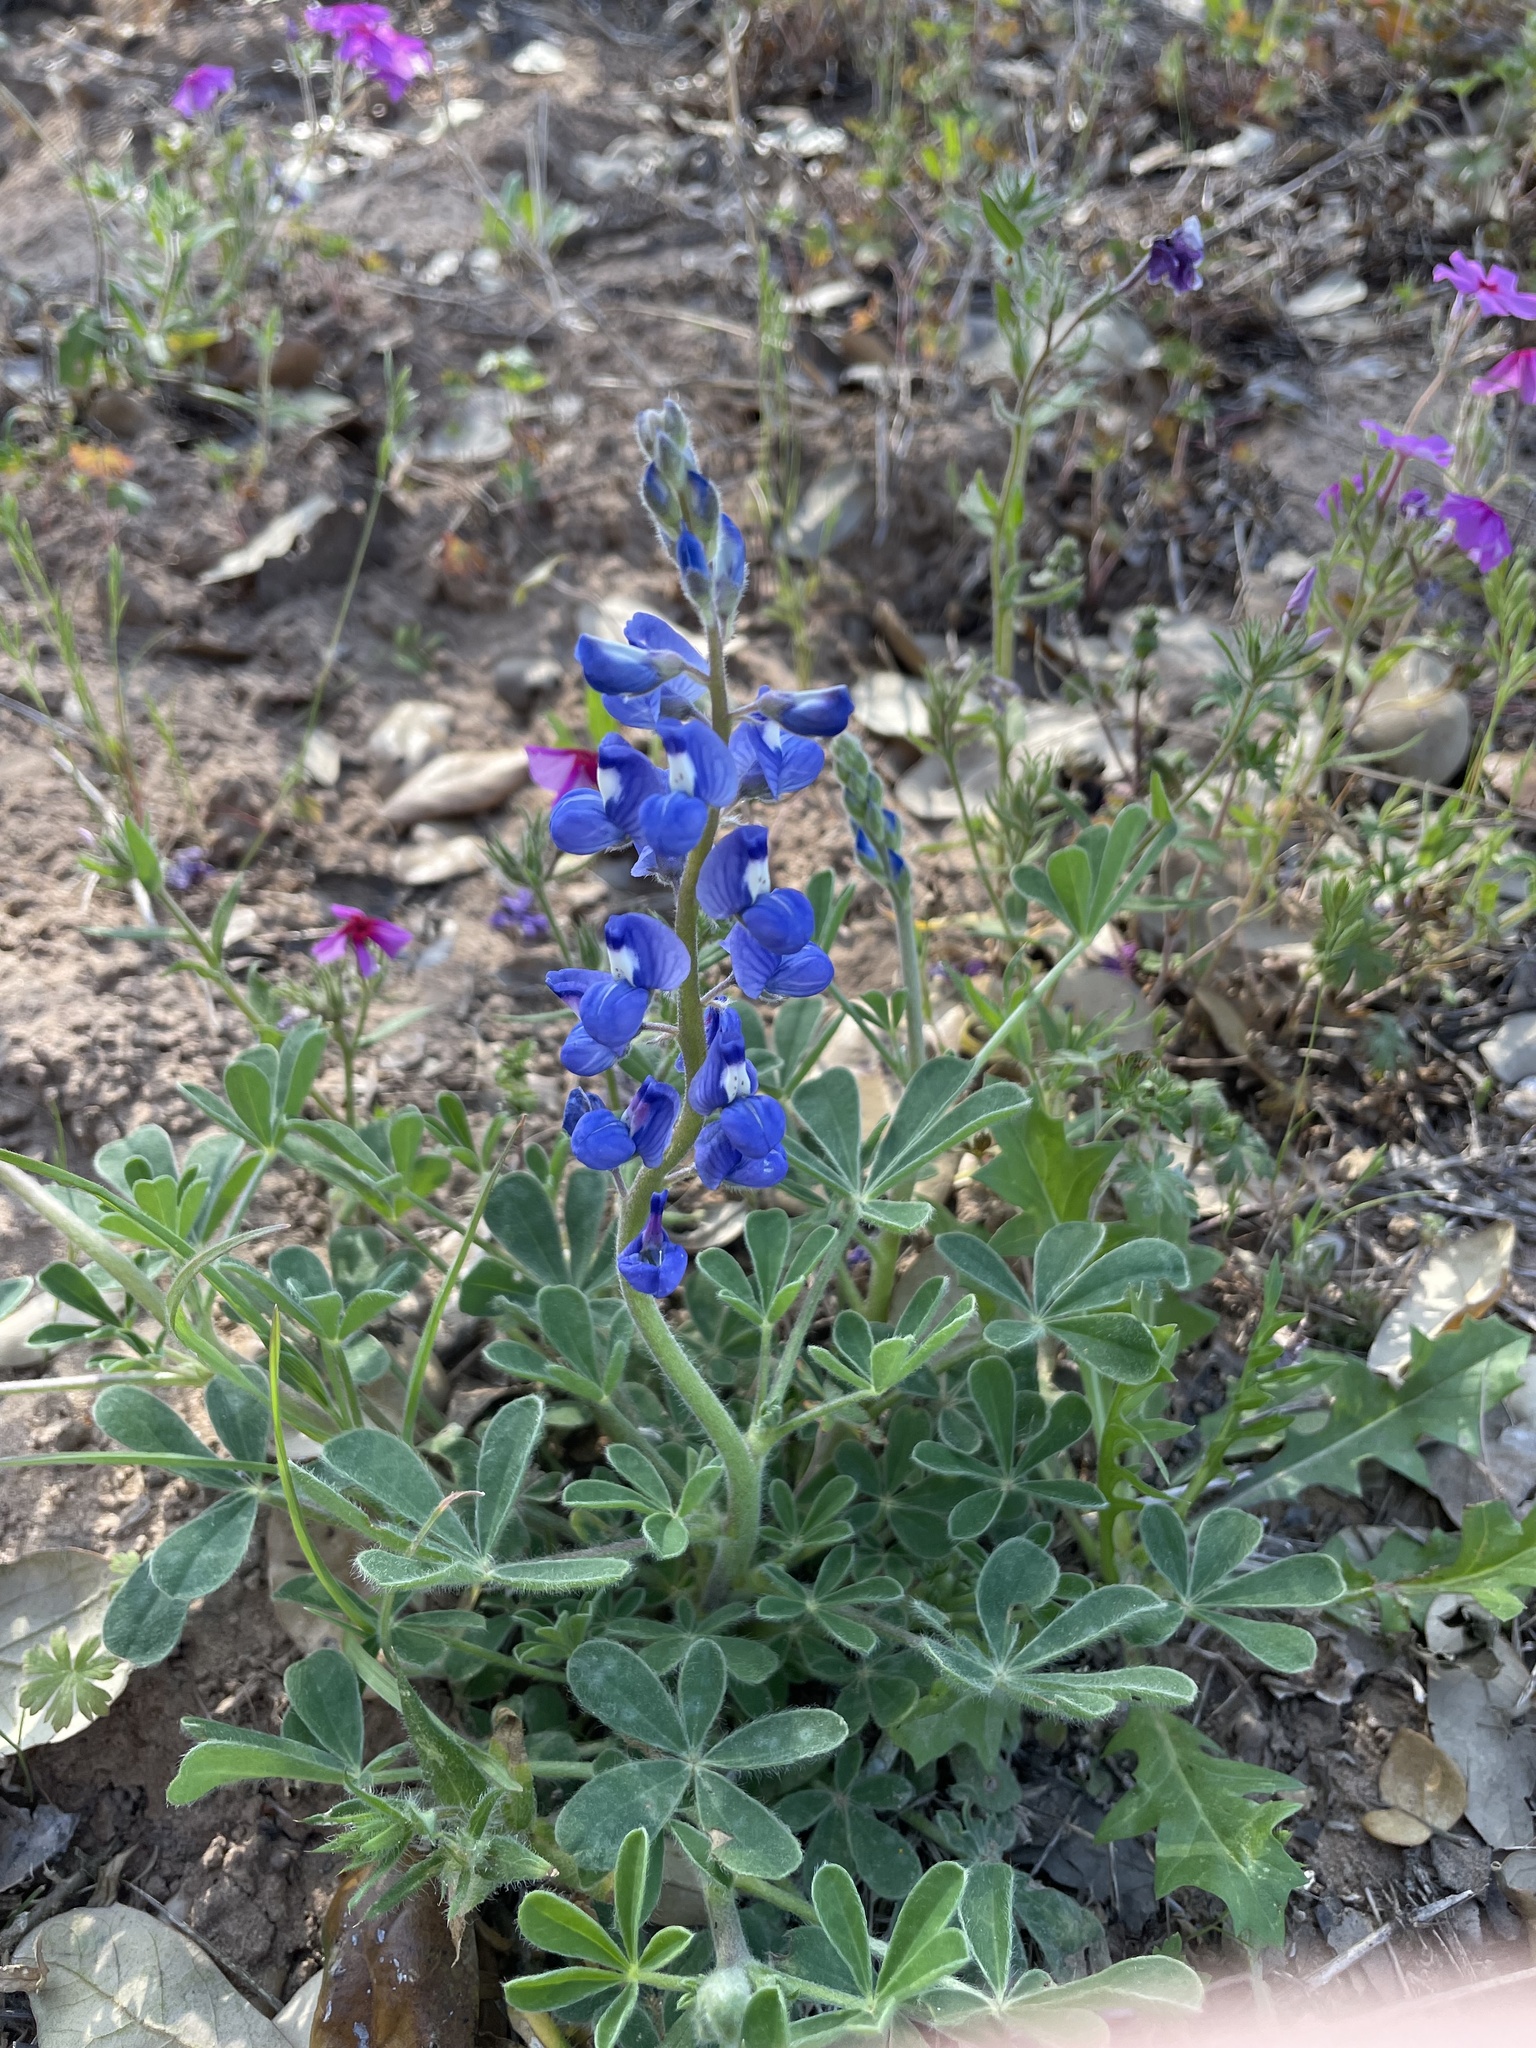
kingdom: Plantae
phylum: Tracheophyta
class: Magnoliopsida
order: Fabales
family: Fabaceae
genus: Lupinus
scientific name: Lupinus subcarnosus
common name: Texas bluebonnet
